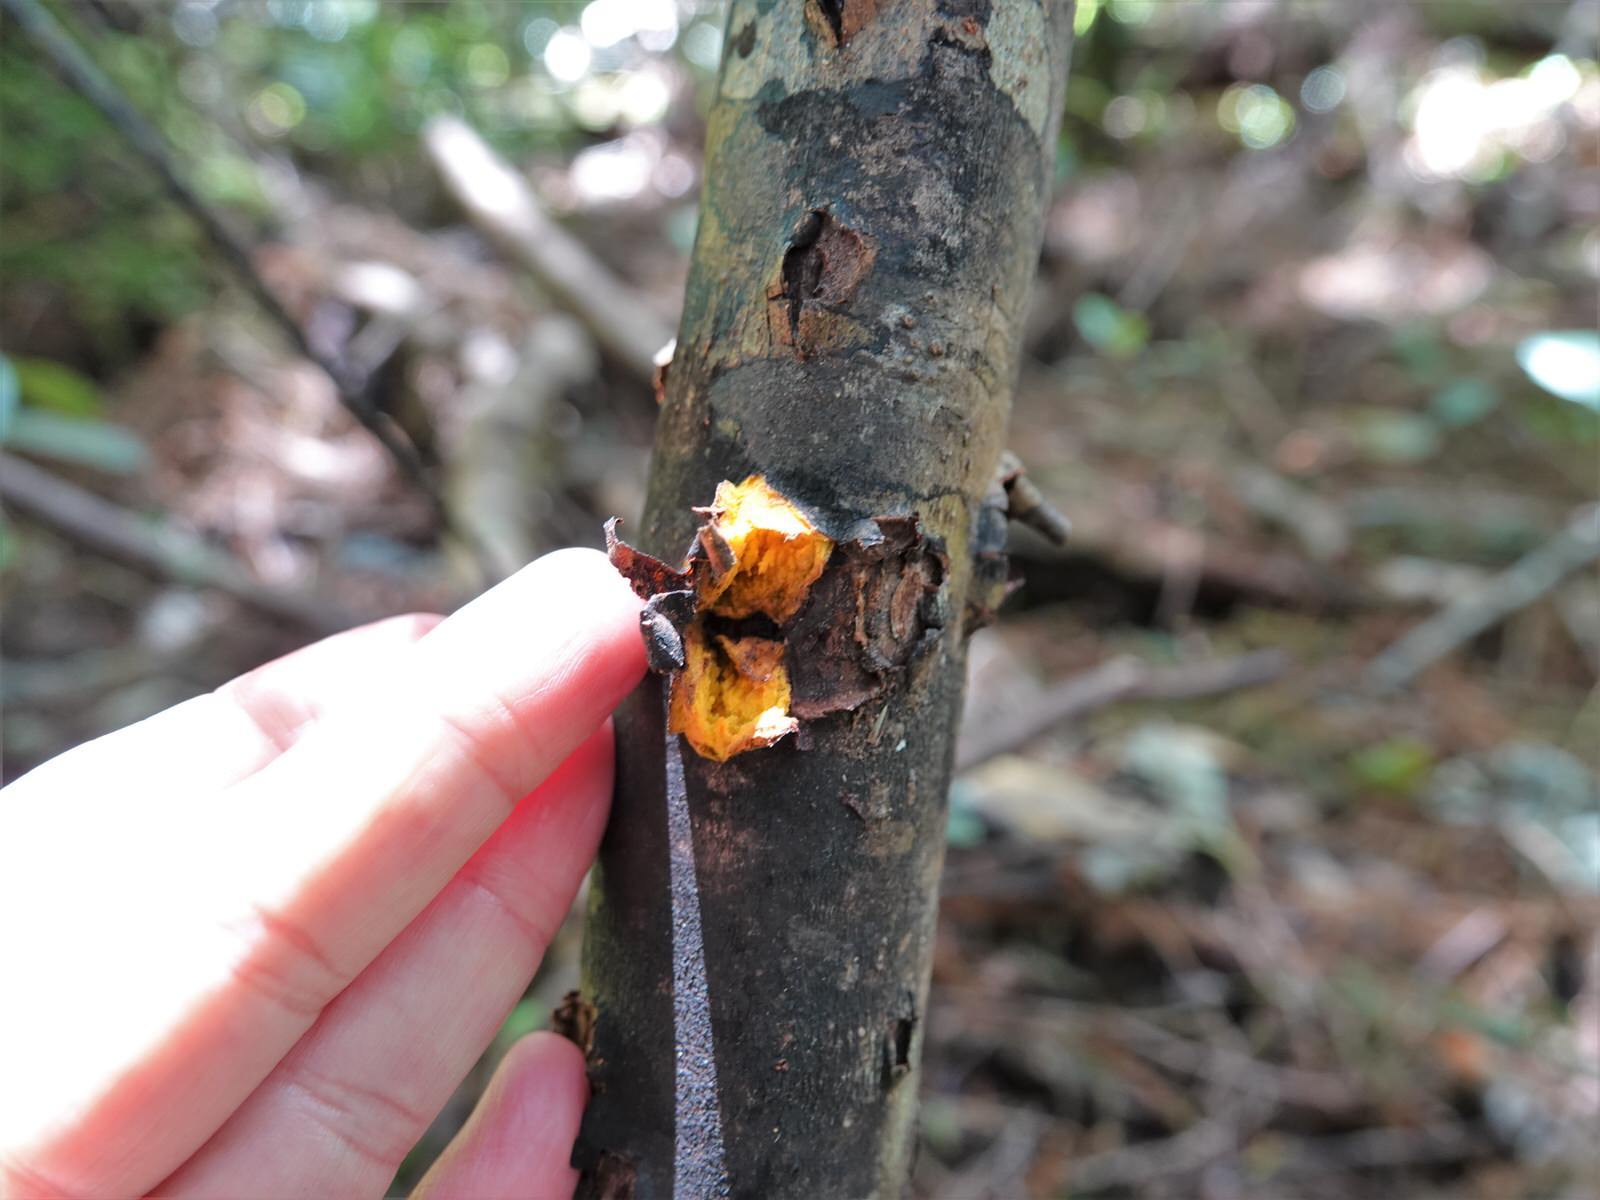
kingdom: Plantae
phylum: Tracheophyta
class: Magnoliopsida
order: Gentianales
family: Rubiaceae
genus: Coprosma
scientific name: Coprosma autumnalis
